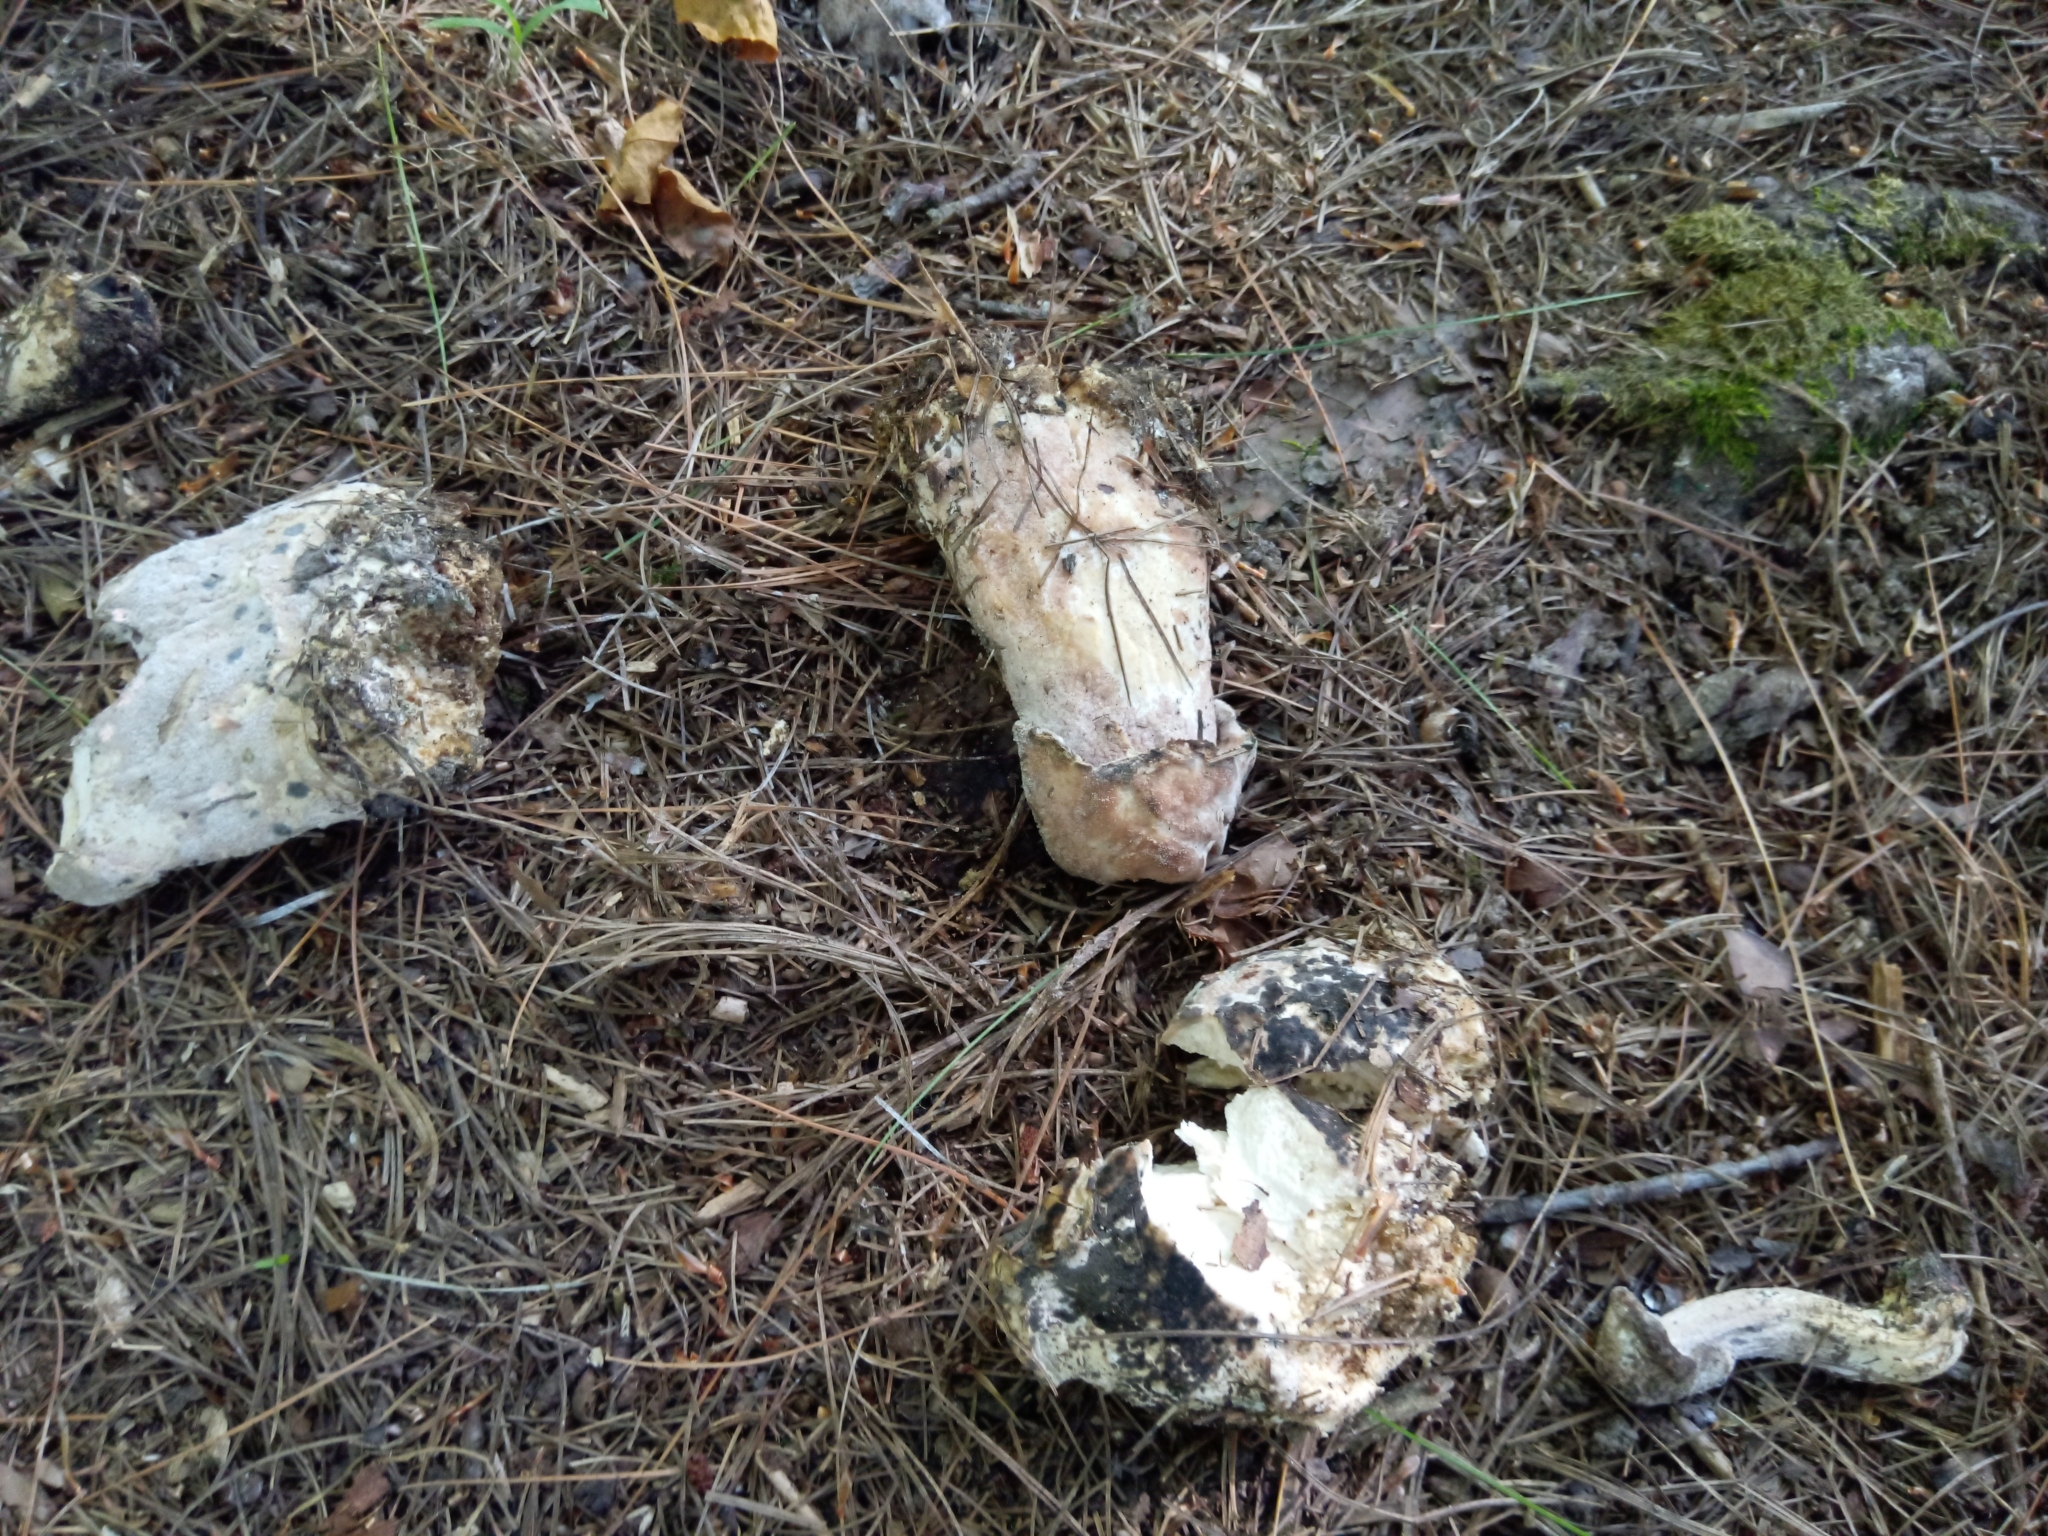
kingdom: Fungi
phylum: Ascomycota
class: Sordariomycetes
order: Hypocreales
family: Hypocreaceae
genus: Hypomyces
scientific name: Hypomyces hyalinus
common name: Amanita mold
